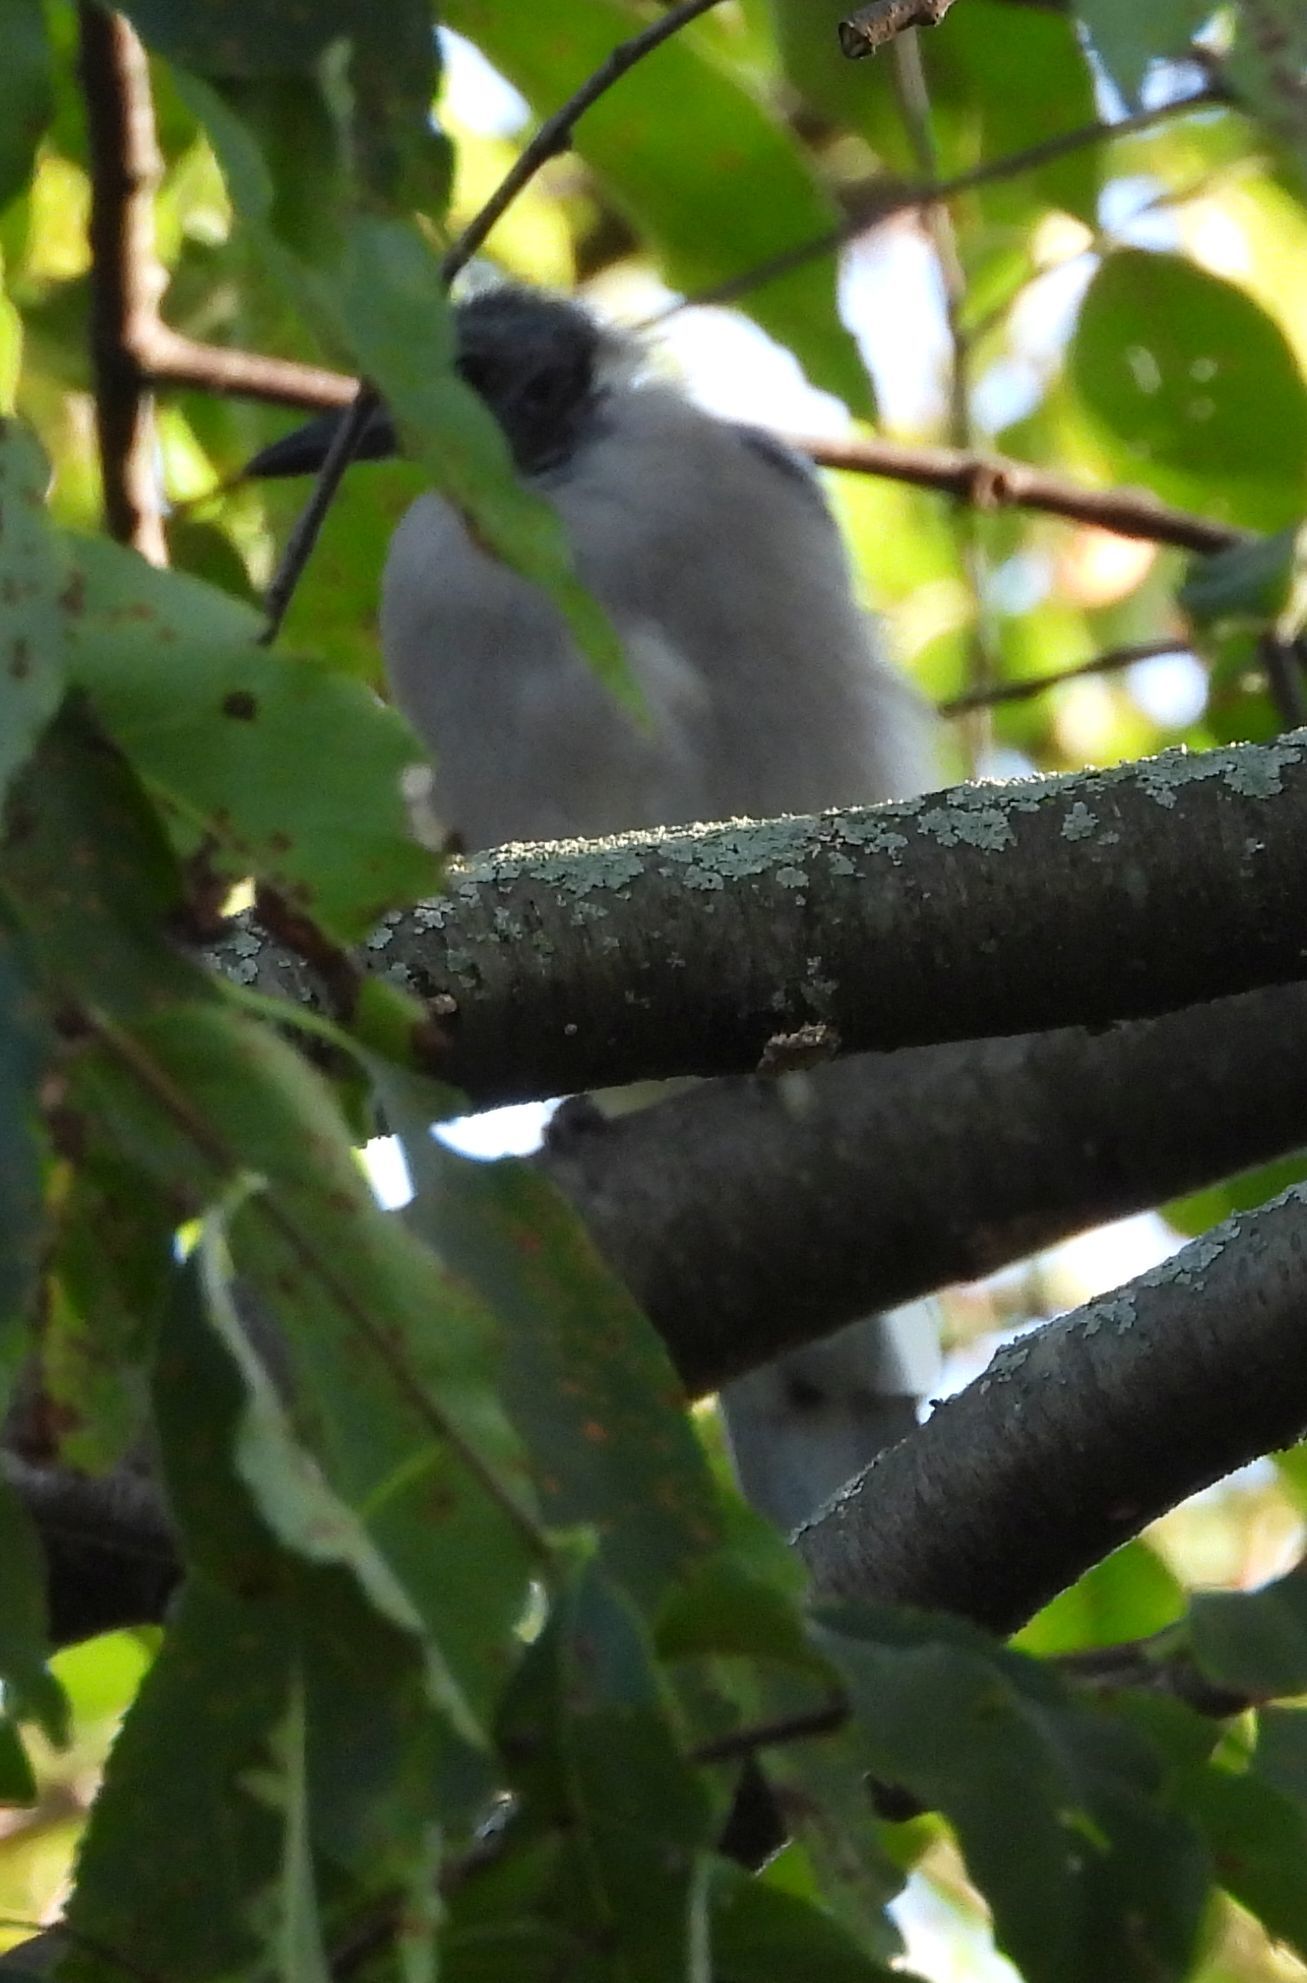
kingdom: Animalia
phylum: Chordata
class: Aves
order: Passeriformes
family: Corvidae
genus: Cyanocitta
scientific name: Cyanocitta cristata
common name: Blue jay
